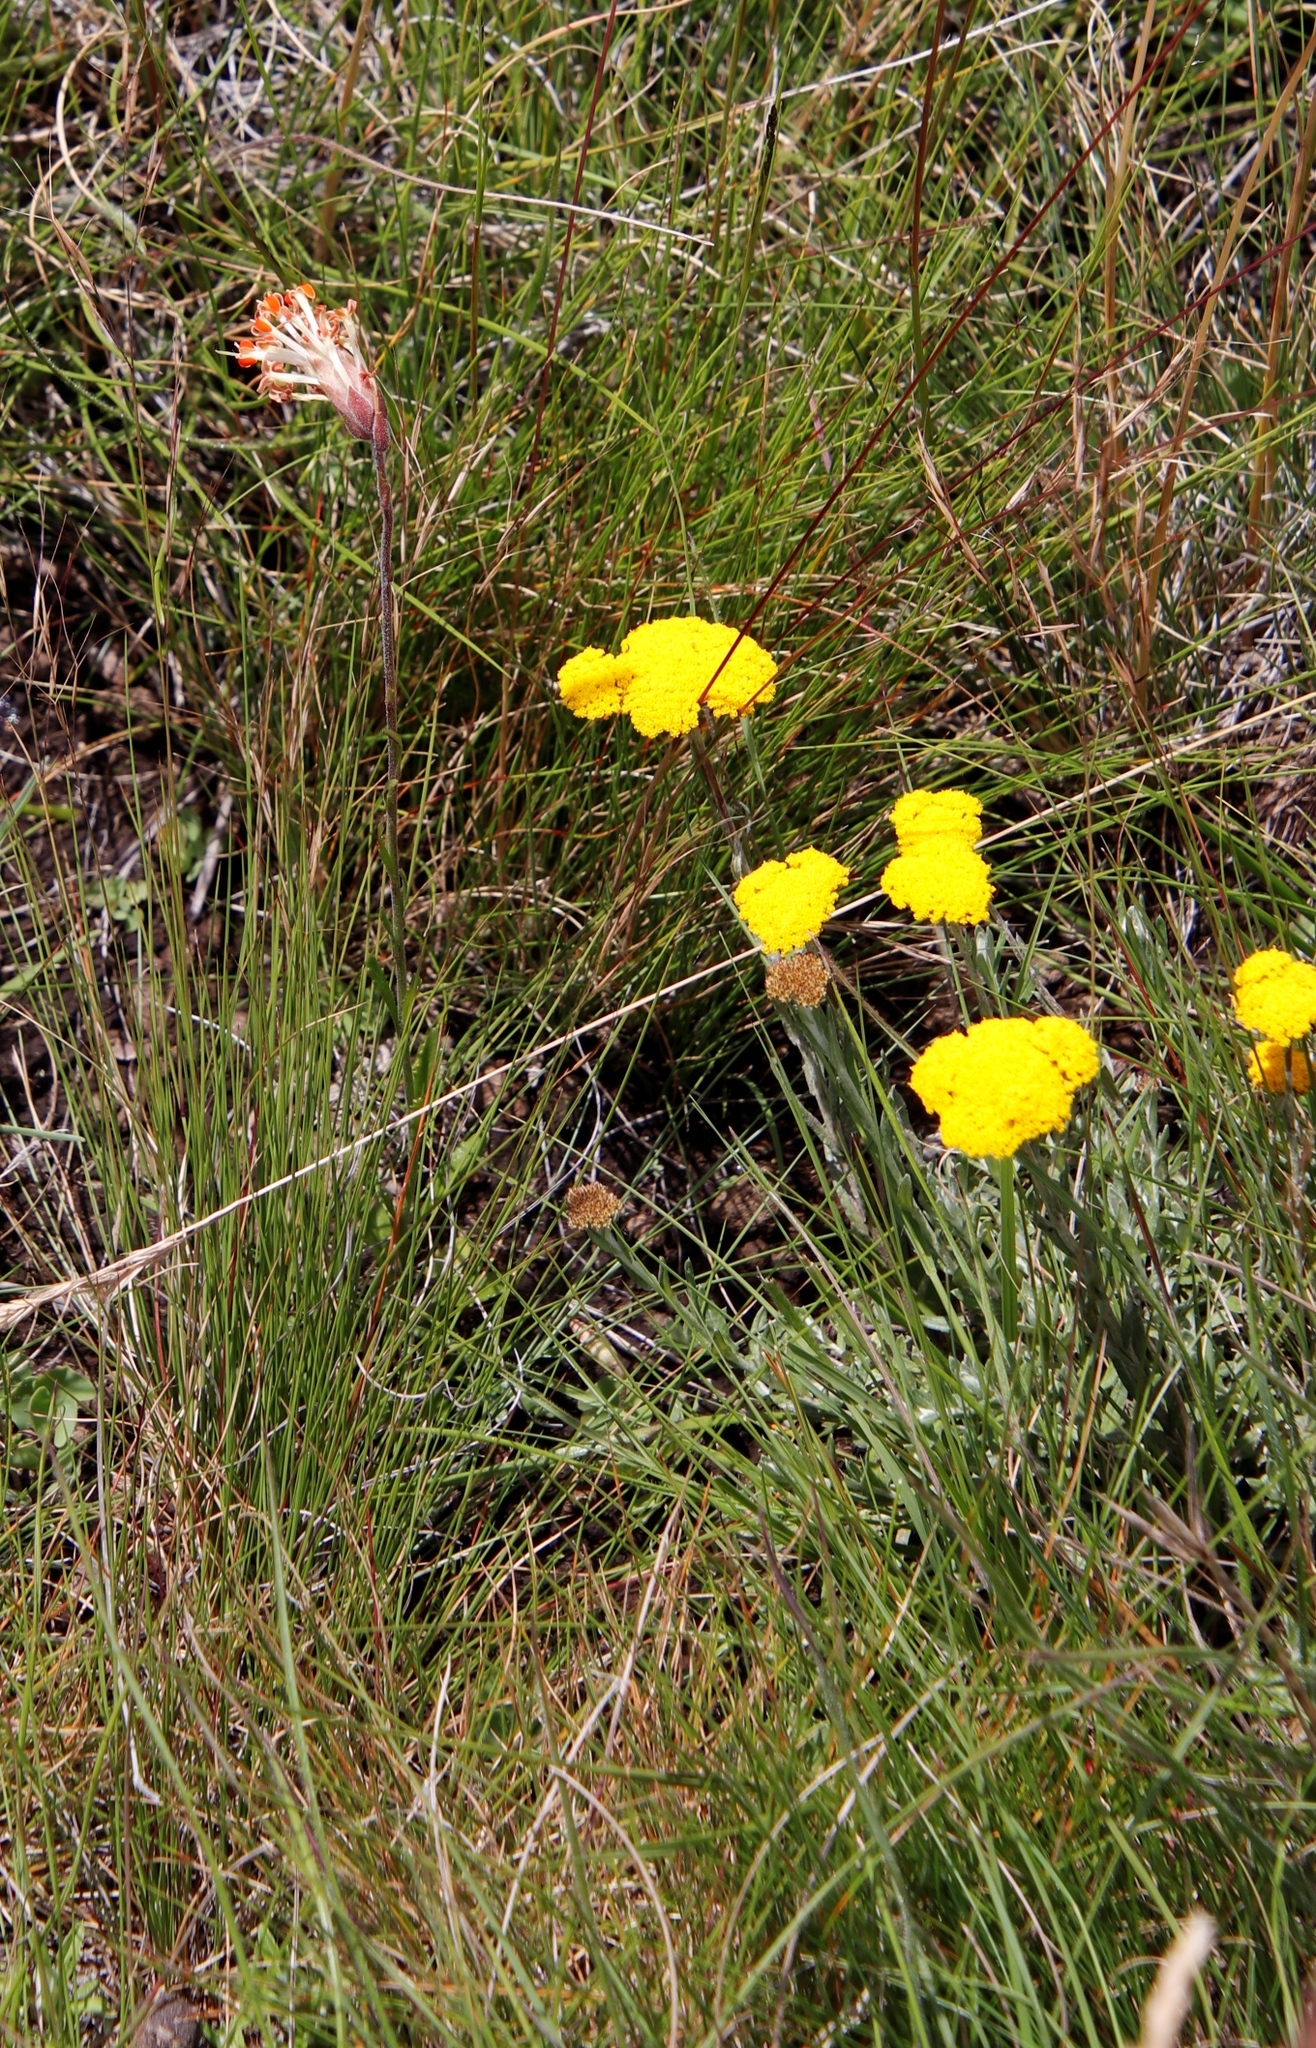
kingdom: Plantae
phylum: Tracheophyta
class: Magnoliopsida
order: Lamiales
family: Scrophulariaceae
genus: Glumicalyx
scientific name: Glumicalyx nutans
